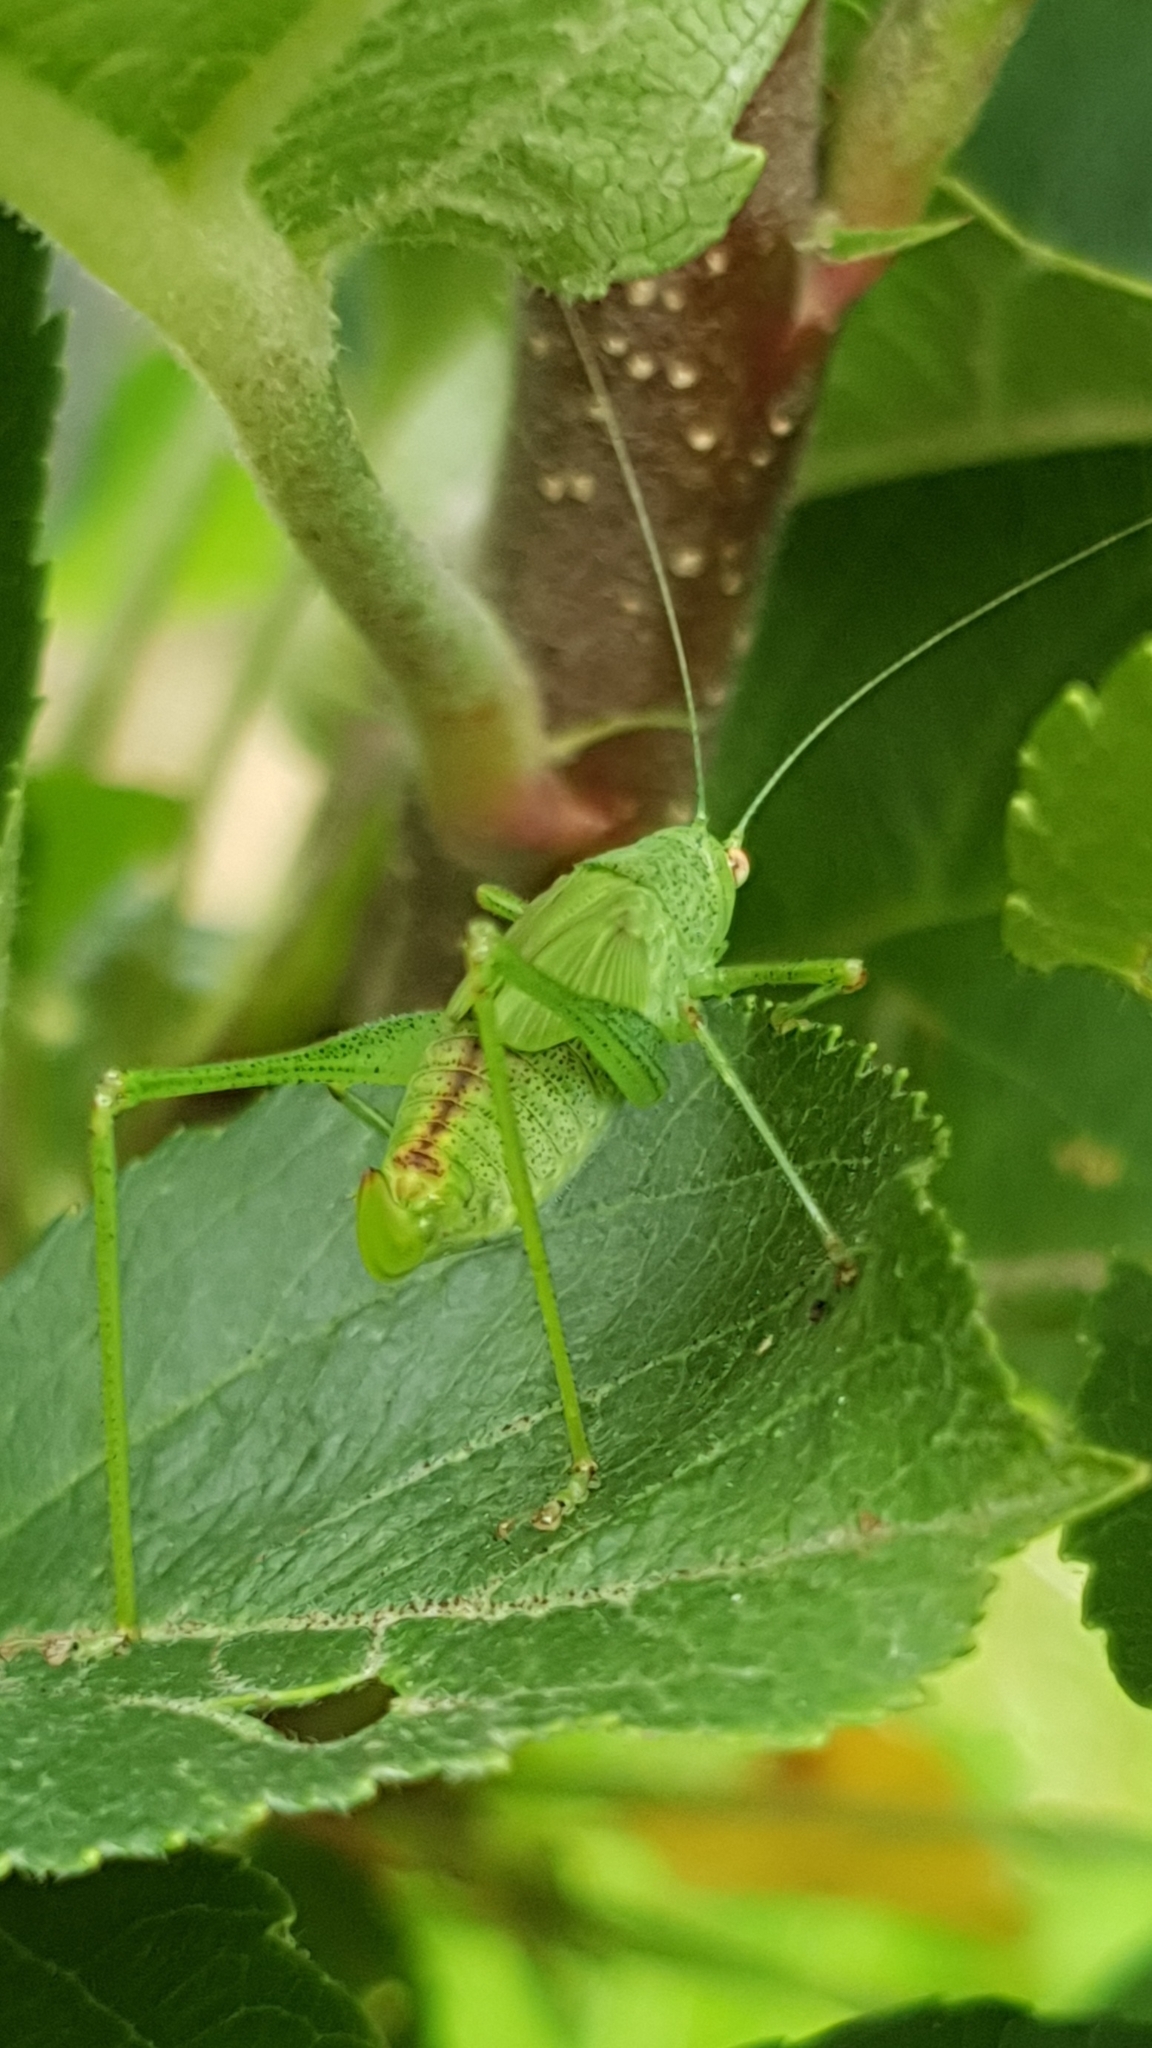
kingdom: Animalia
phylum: Arthropoda
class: Insecta
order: Orthoptera
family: Tettigoniidae
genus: Phaneroptera
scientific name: Phaneroptera nana
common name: Southern sickle bush-cricket
